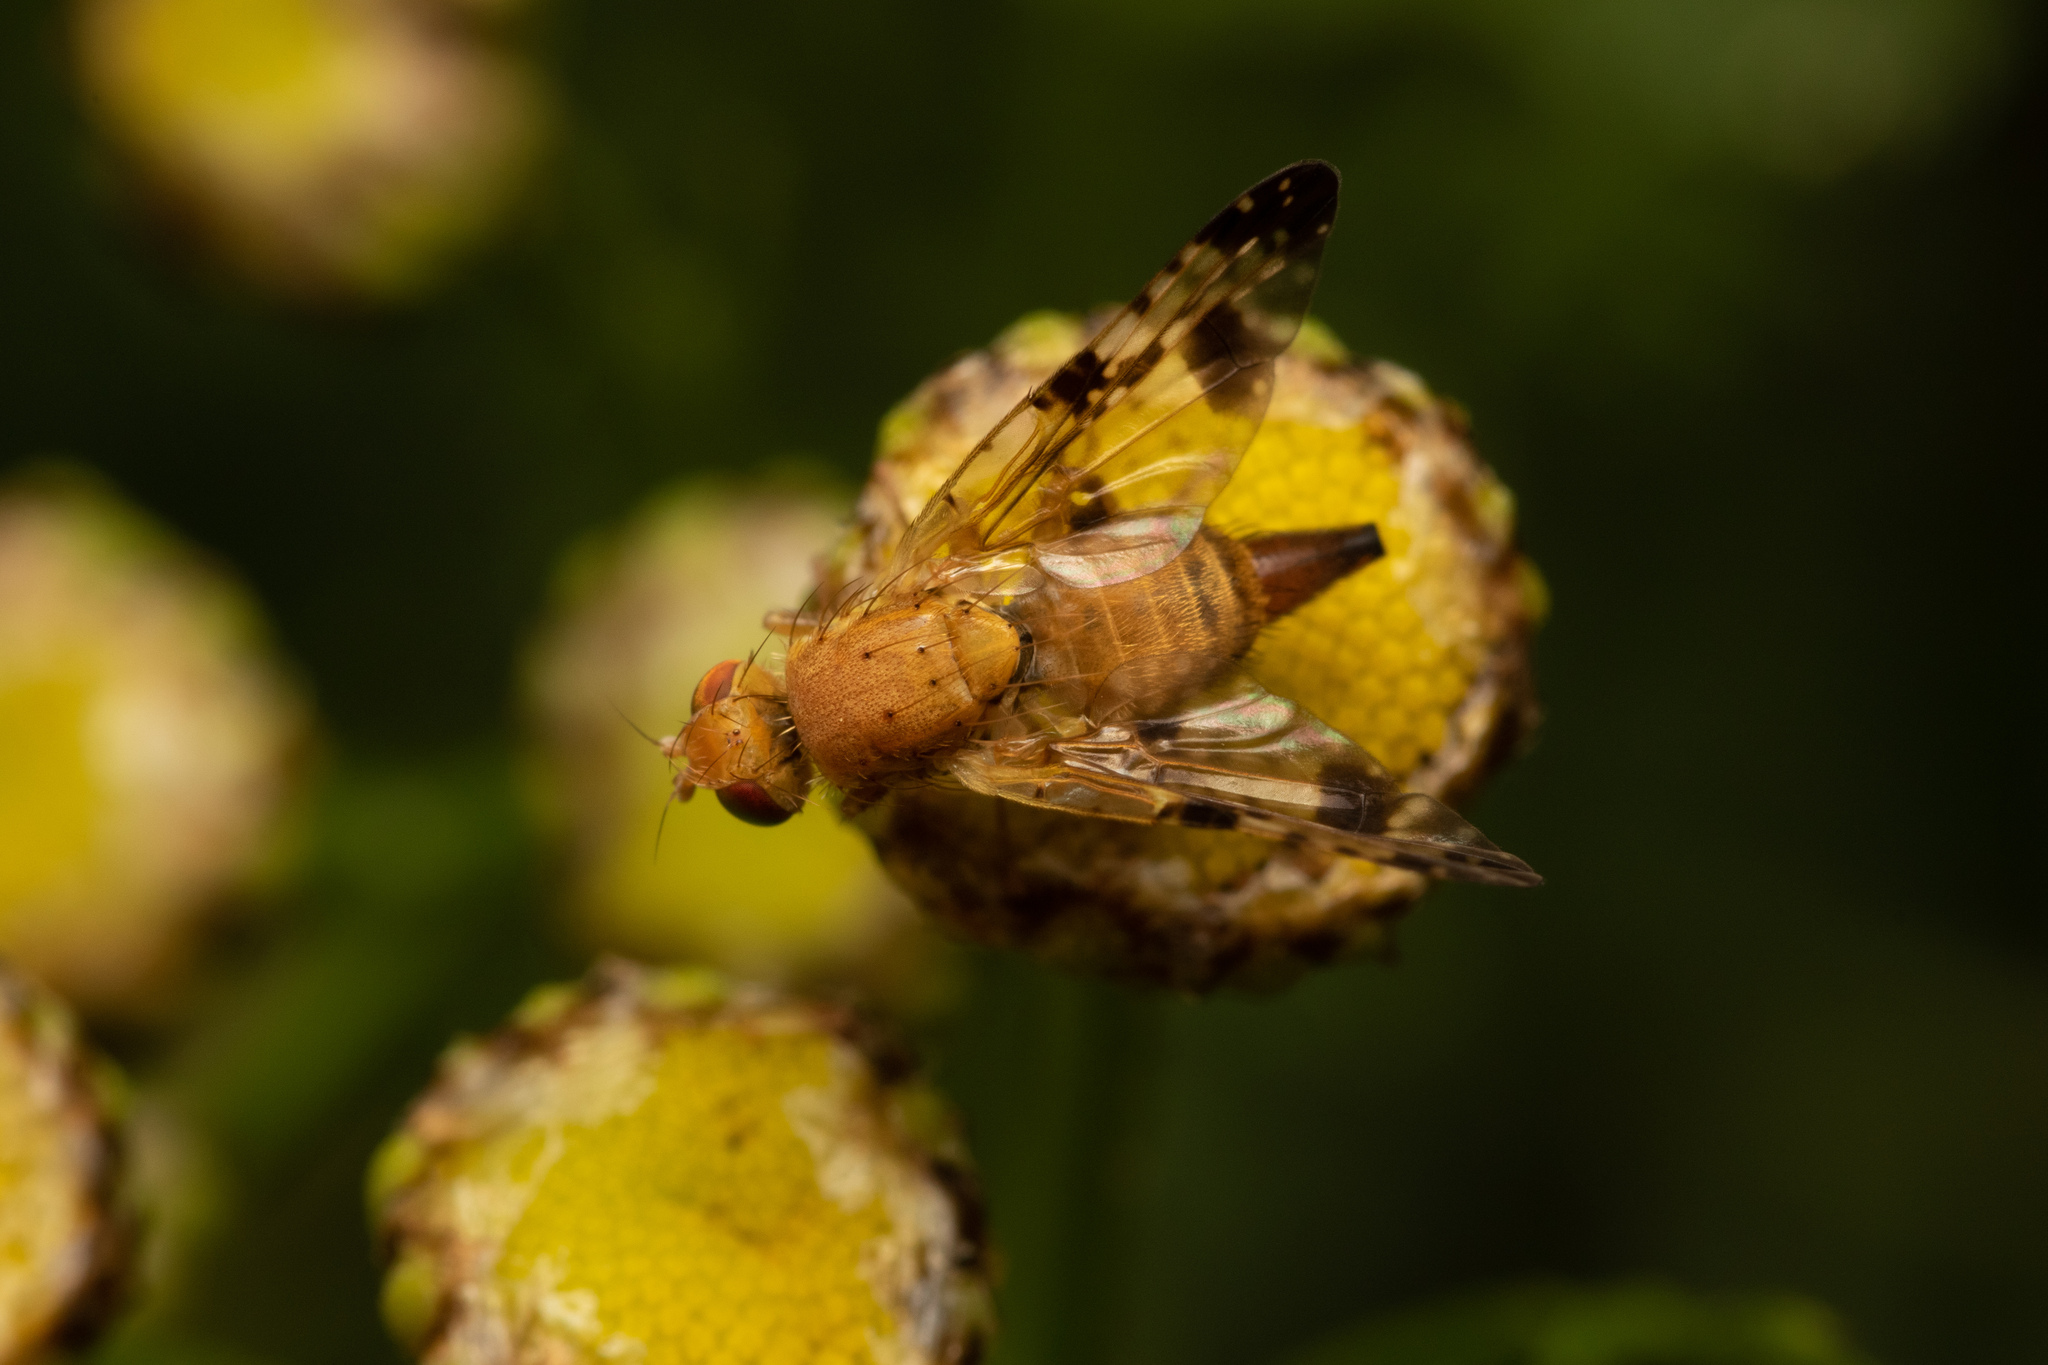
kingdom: Animalia
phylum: Arthropoda
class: Insecta
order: Diptera
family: Tephritidae
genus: Xyphosia
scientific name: Xyphosia miliaria
